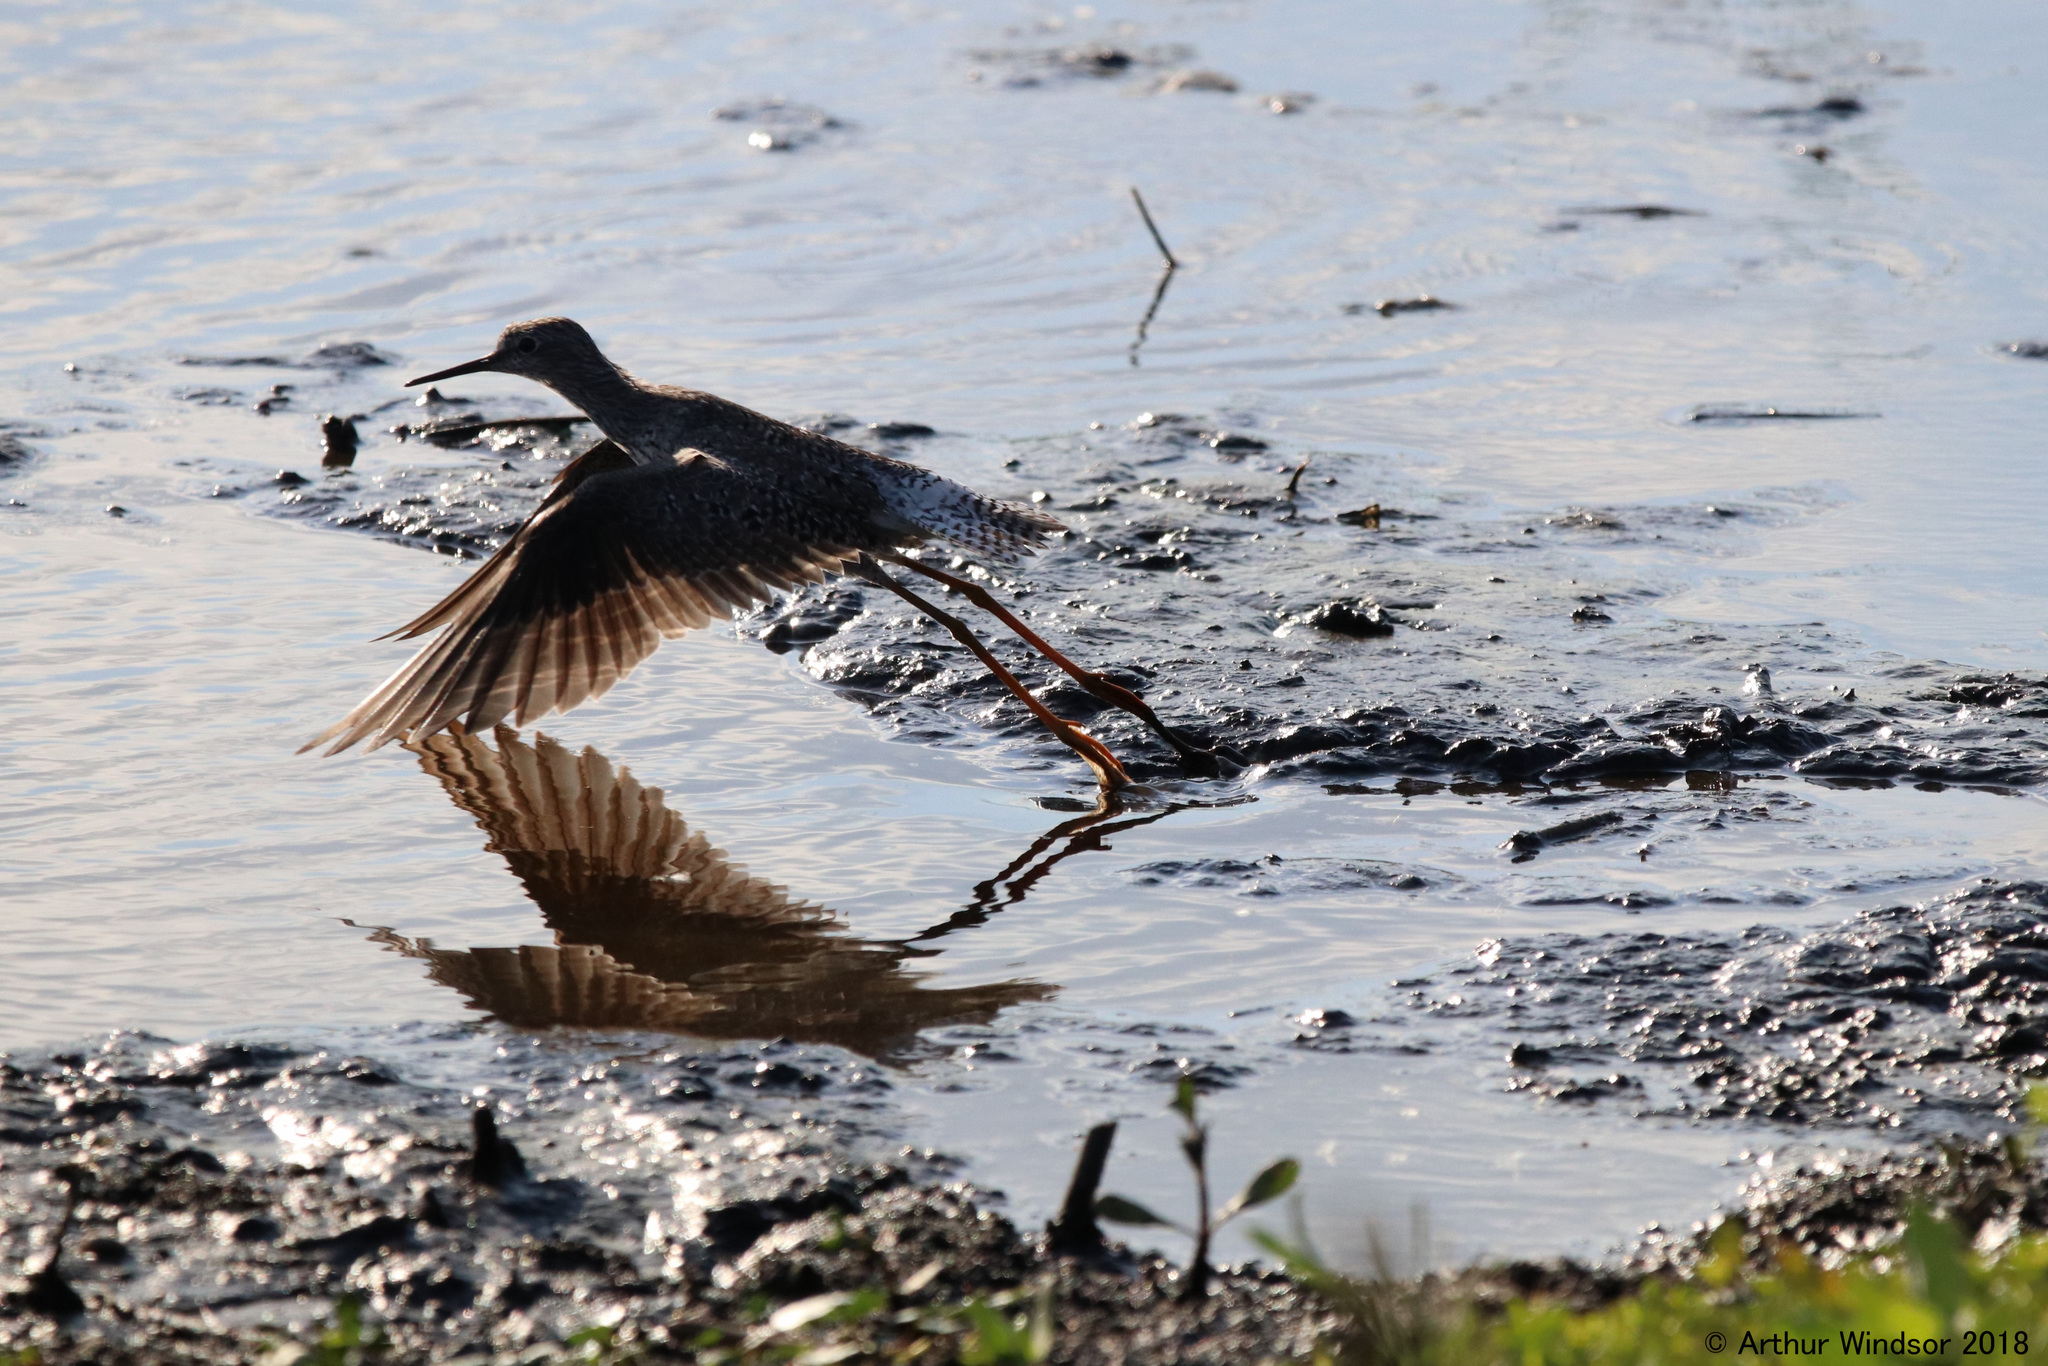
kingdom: Animalia
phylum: Chordata
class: Aves
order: Charadriiformes
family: Scolopacidae
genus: Tringa
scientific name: Tringa flavipes
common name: Lesser yellowlegs
